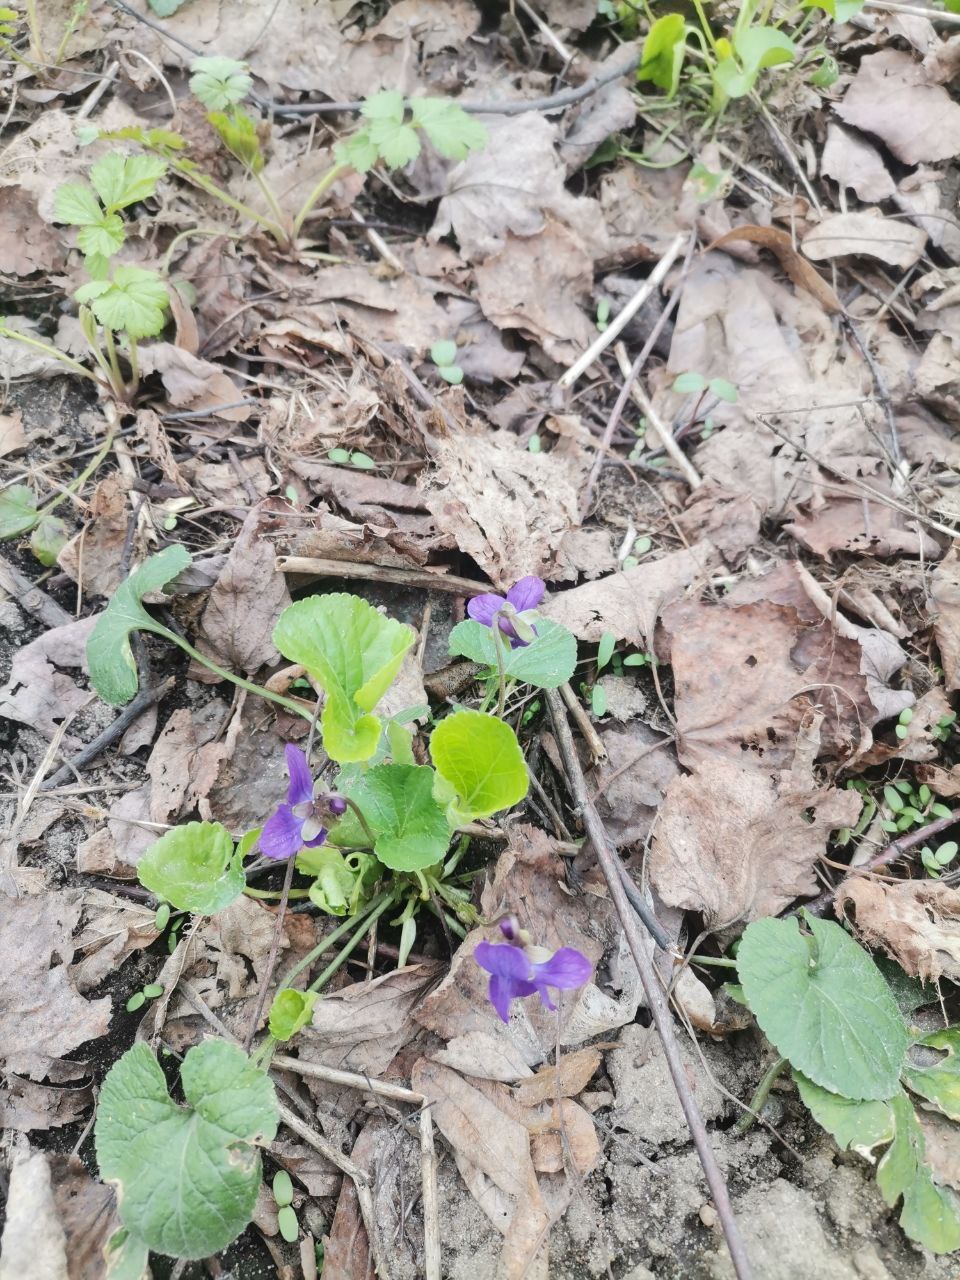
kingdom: Plantae
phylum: Tracheophyta
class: Magnoliopsida
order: Malpighiales
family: Violaceae
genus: Viola
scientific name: Viola odorata
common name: Sweet violet
